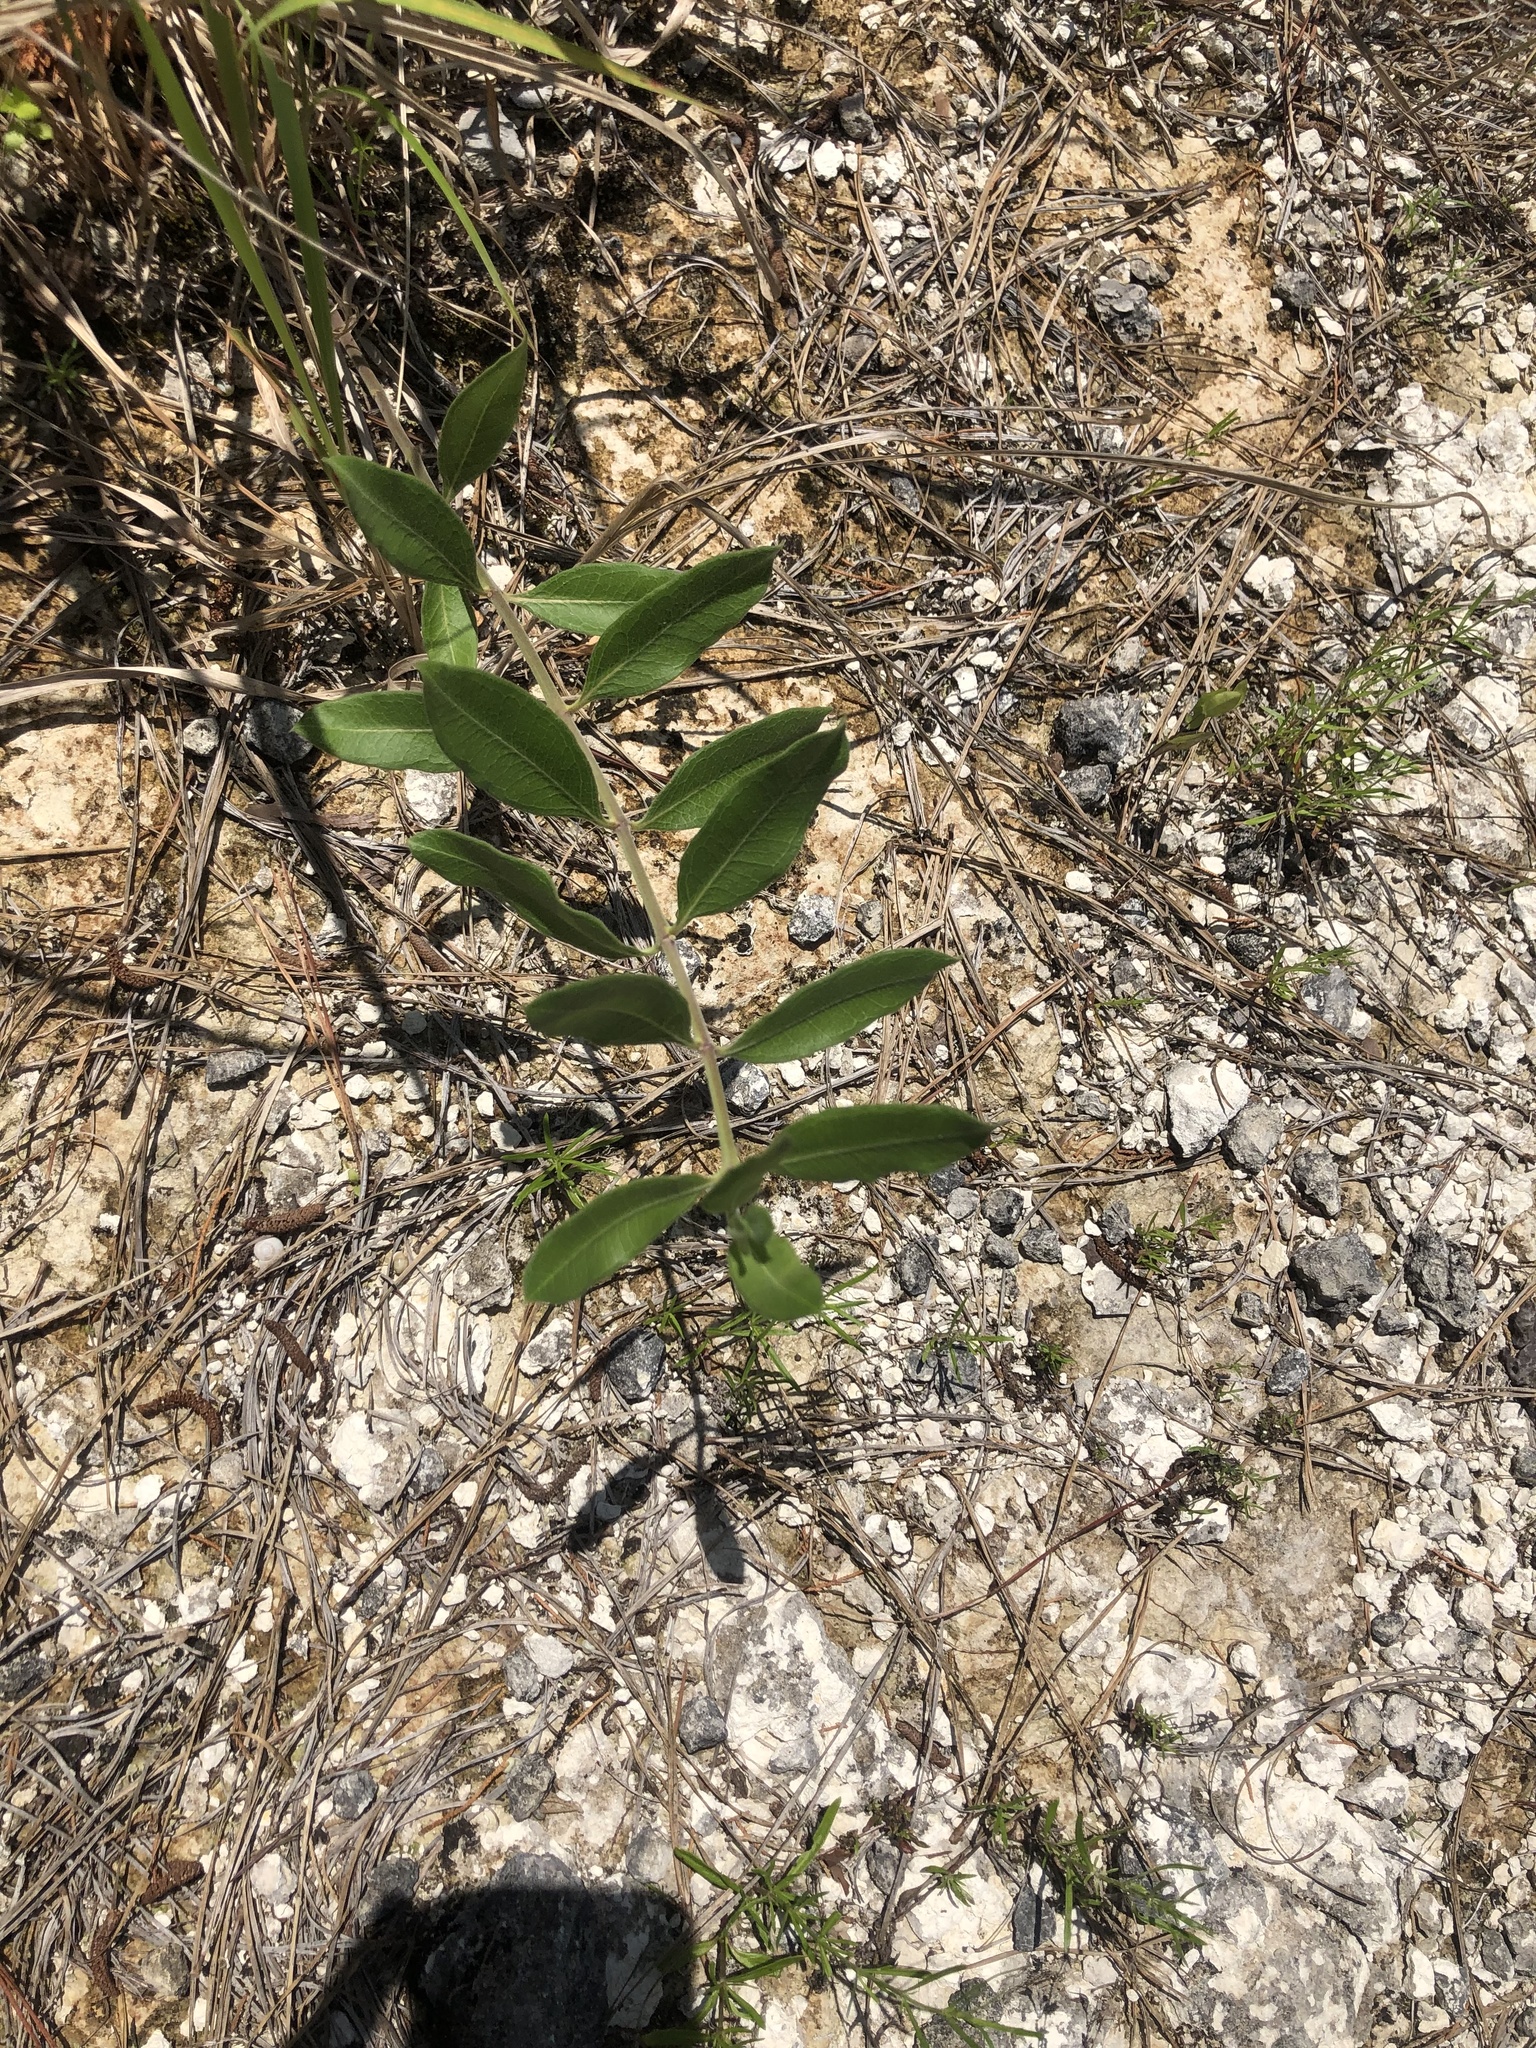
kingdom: Plantae
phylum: Tracheophyta
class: Magnoliopsida
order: Gentianales
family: Apocynaceae
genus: Asclepias
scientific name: Asclepias viridiflora
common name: Green comet milkweed
